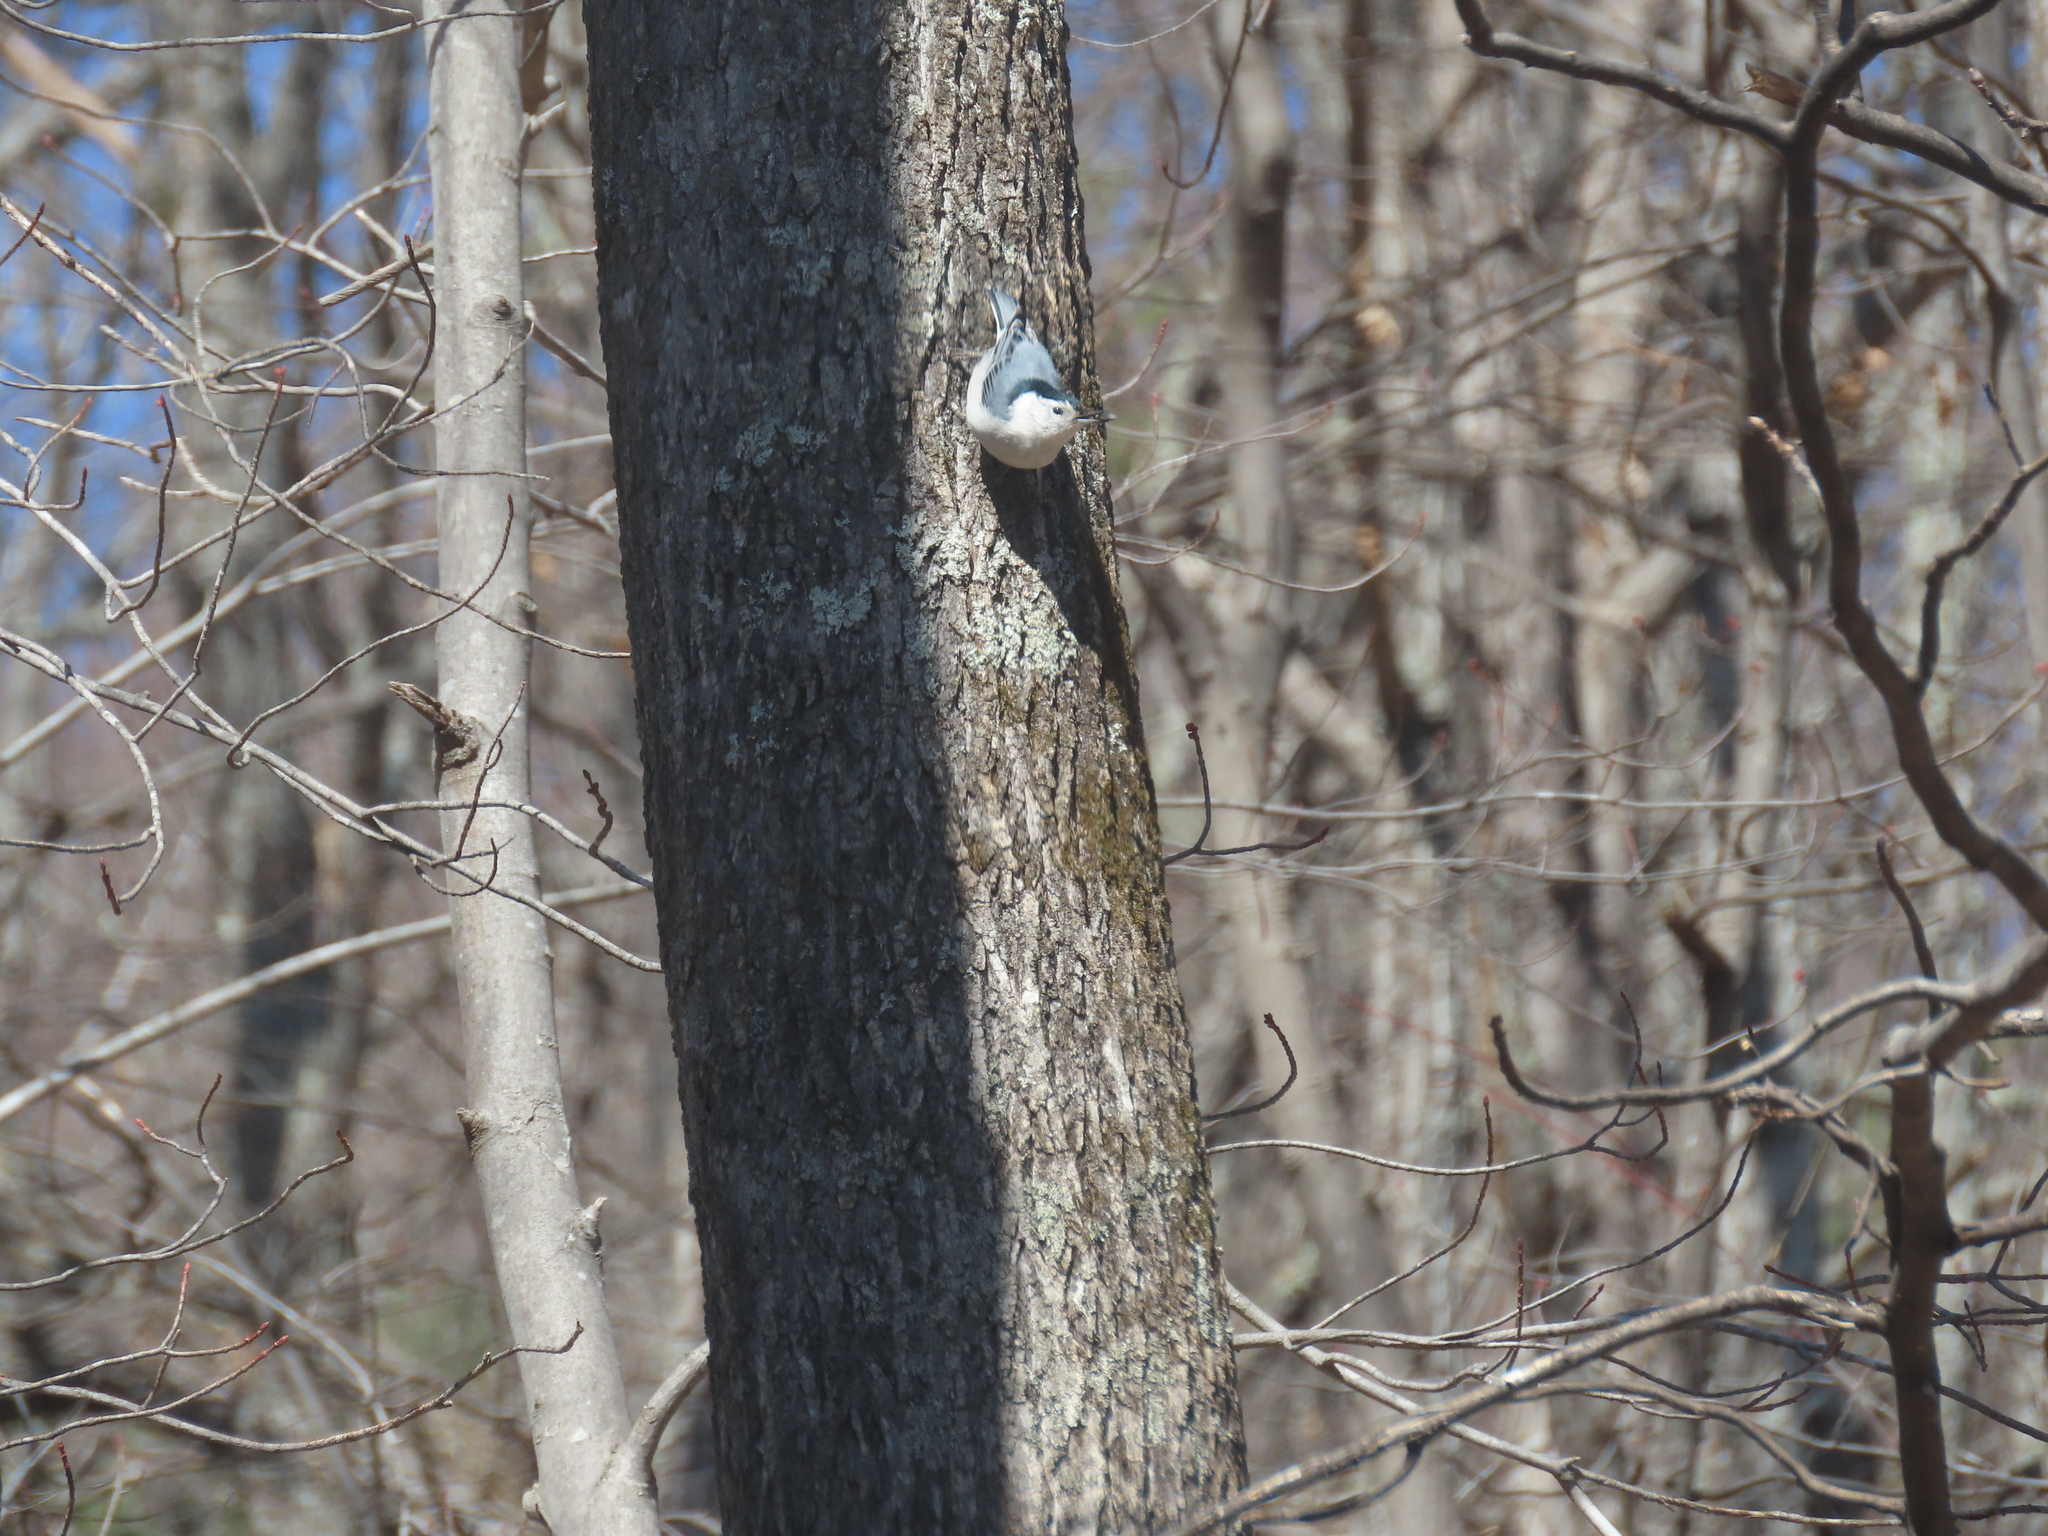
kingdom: Animalia
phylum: Chordata
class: Aves
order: Passeriformes
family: Sittidae
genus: Sitta
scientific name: Sitta carolinensis
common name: White-breasted nuthatch
